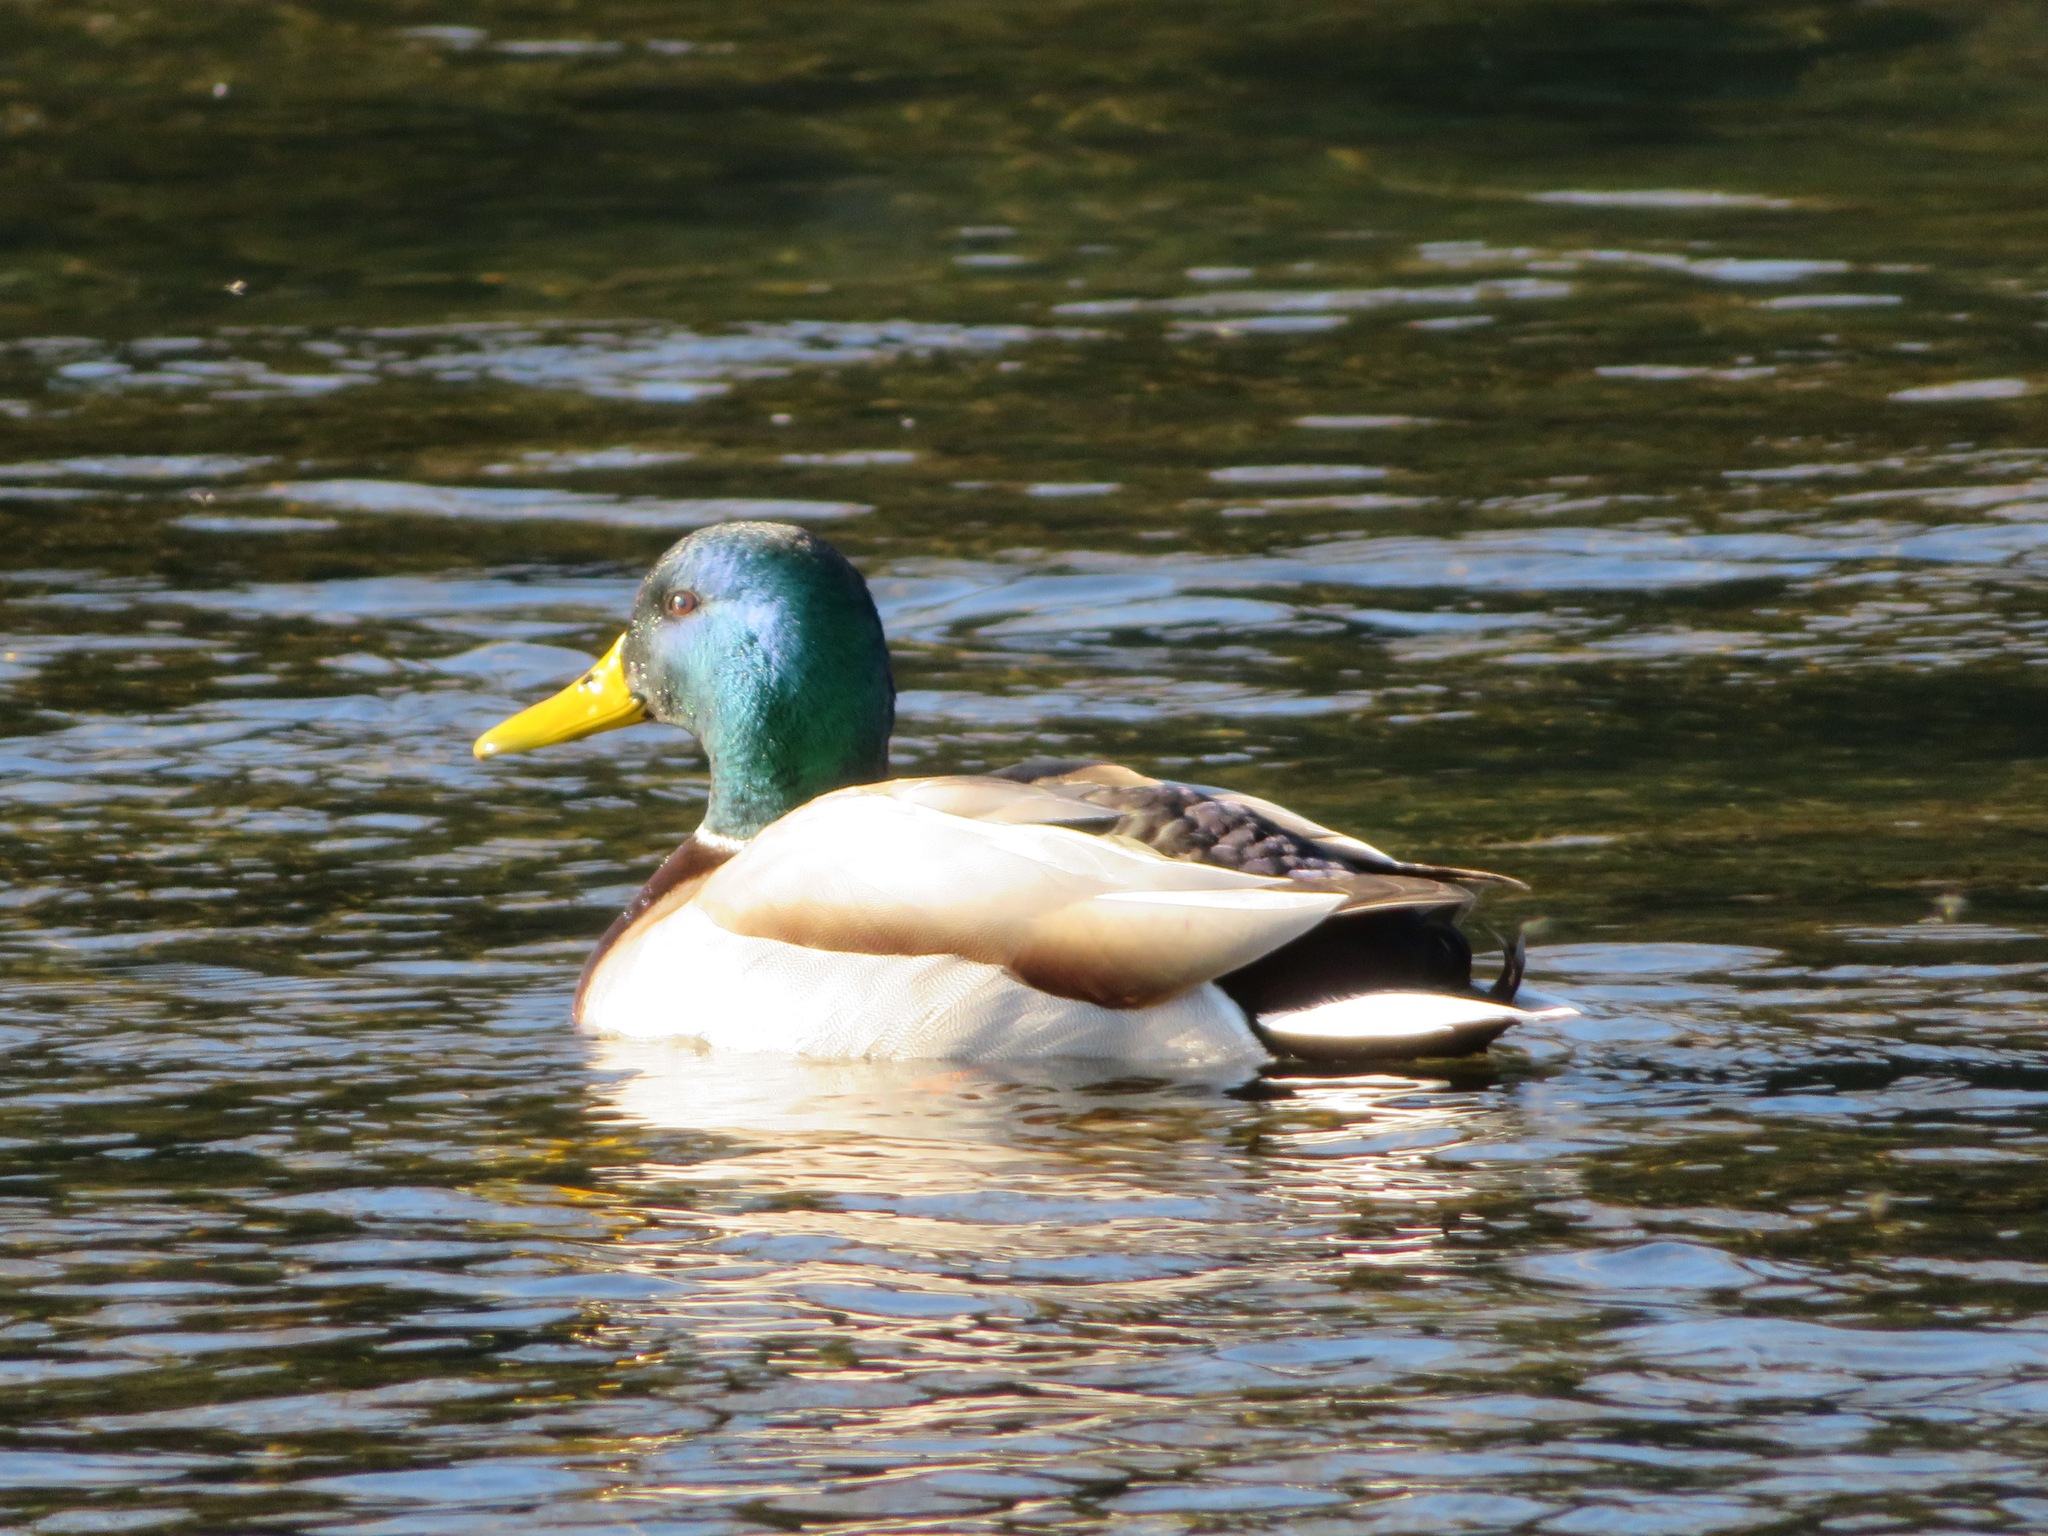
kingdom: Animalia
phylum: Chordata
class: Aves
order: Anseriformes
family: Anatidae
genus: Anas
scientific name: Anas platyrhynchos
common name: Mallard
